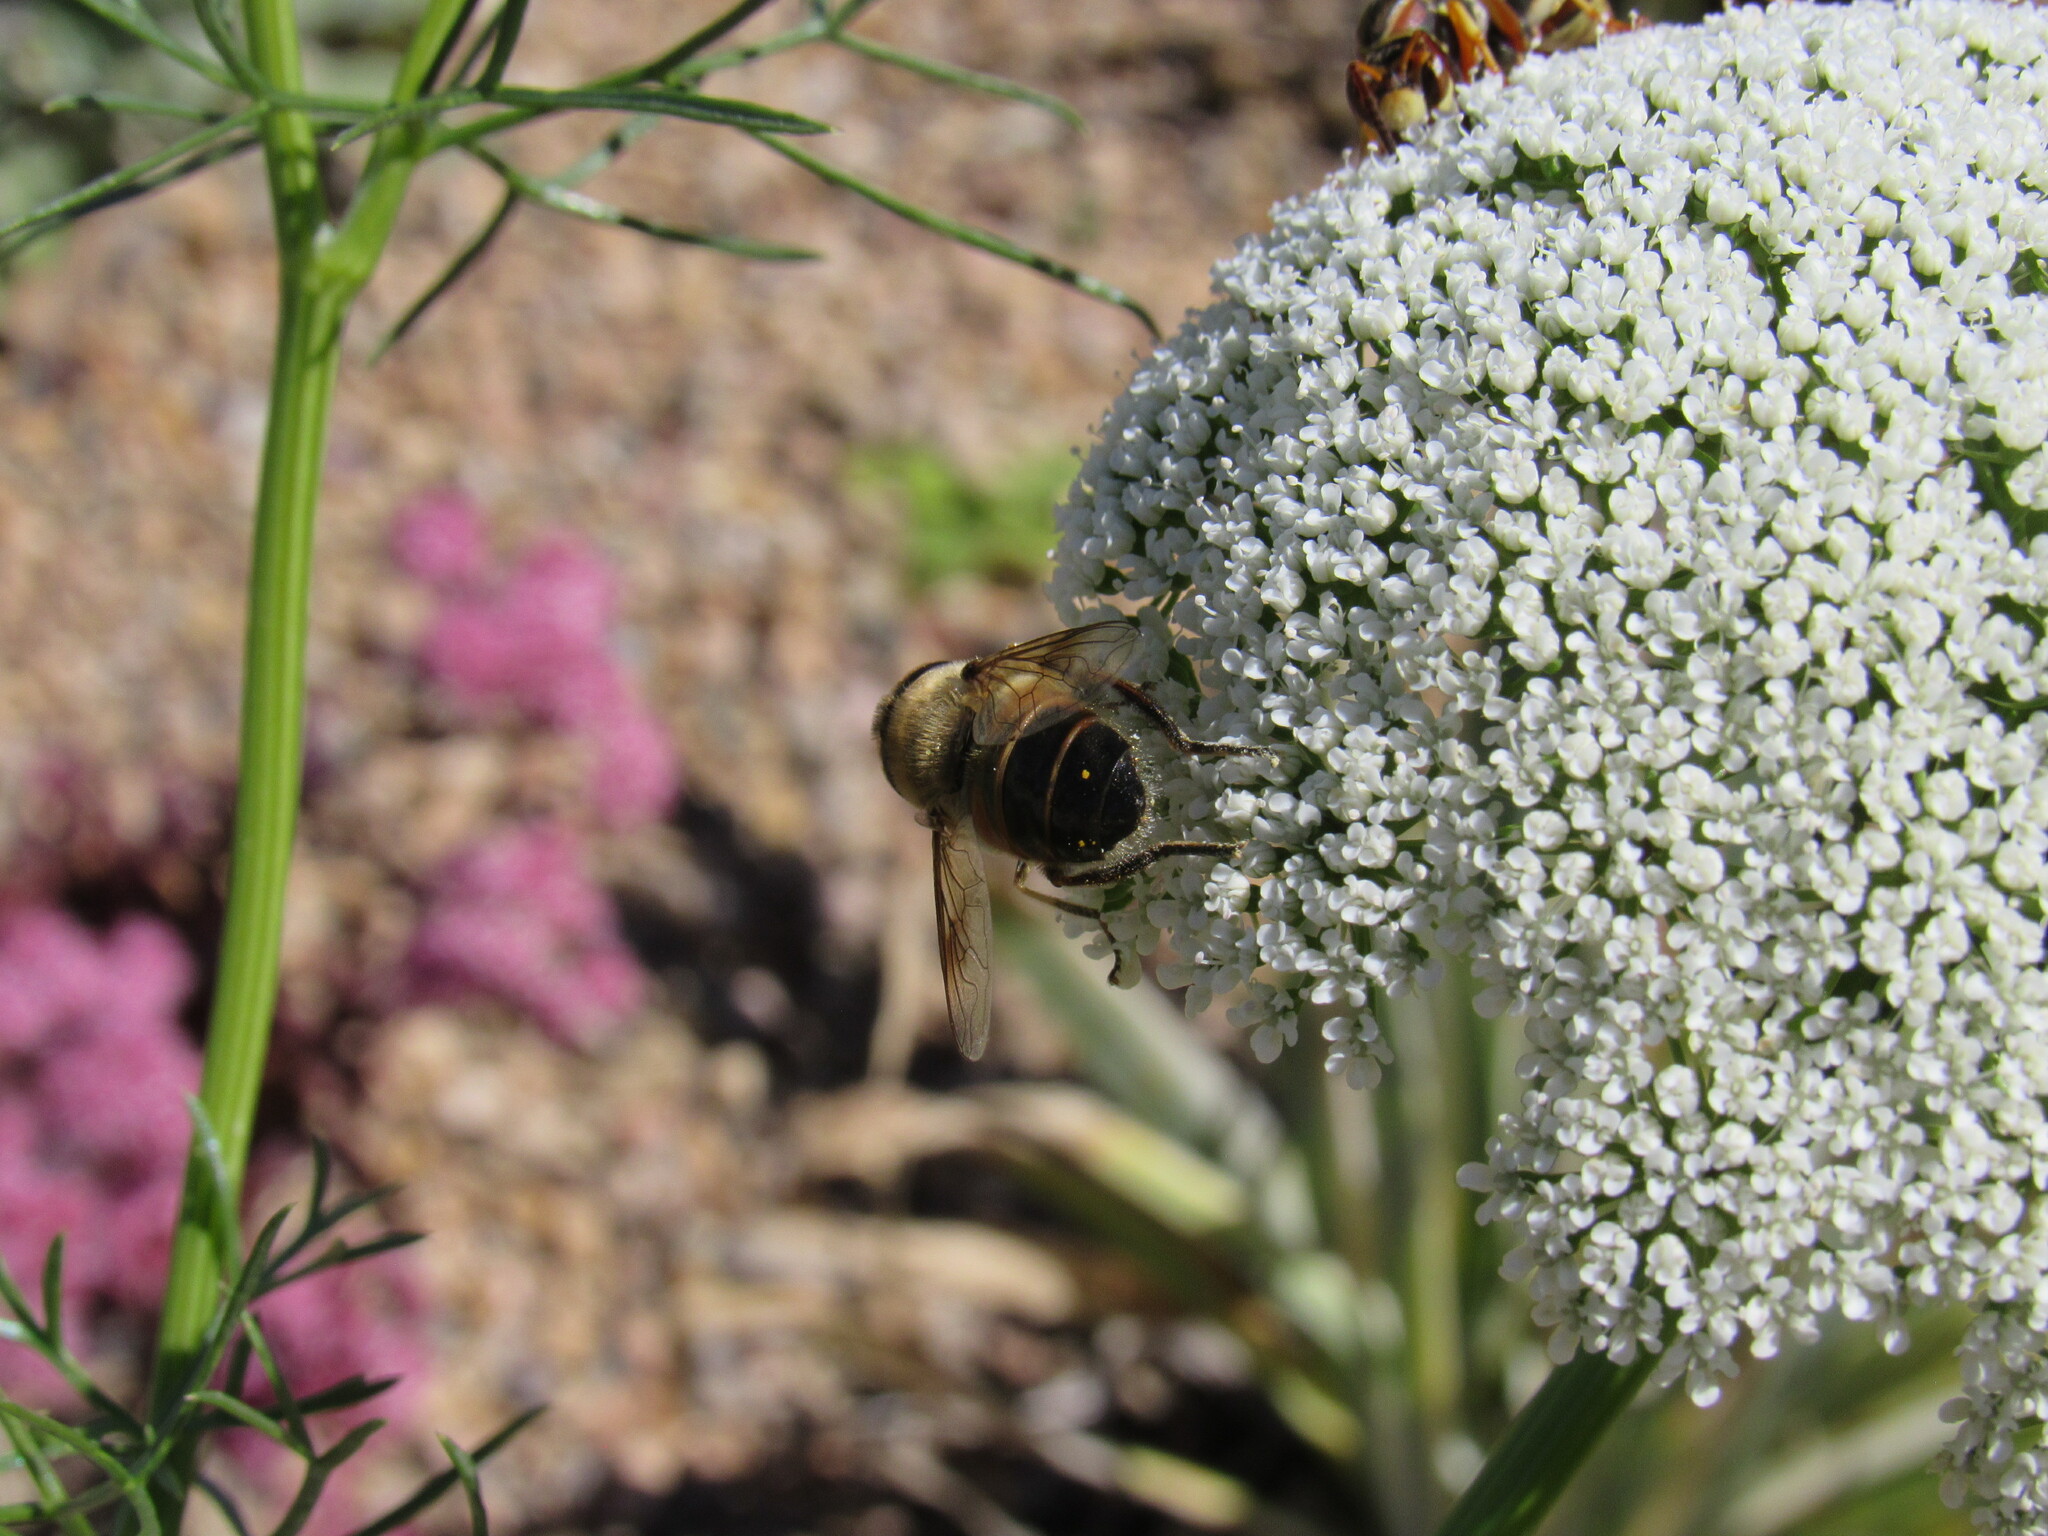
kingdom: Animalia
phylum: Arthropoda
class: Insecta
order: Diptera
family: Syrphidae
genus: Eristalis
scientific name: Eristalis tenax
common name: Drone fly
